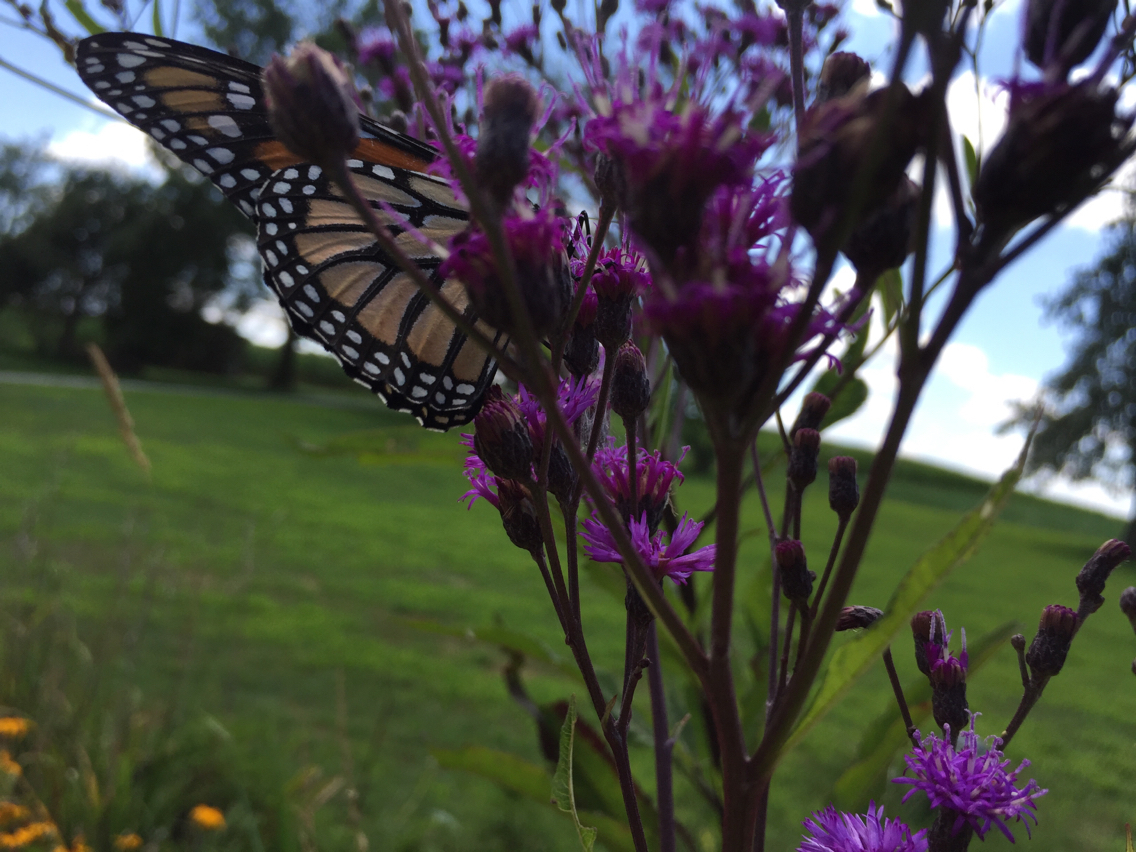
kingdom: Animalia
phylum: Arthropoda
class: Insecta
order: Lepidoptera
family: Nymphalidae
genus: Danaus
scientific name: Danaus plexippus
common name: Monarch
